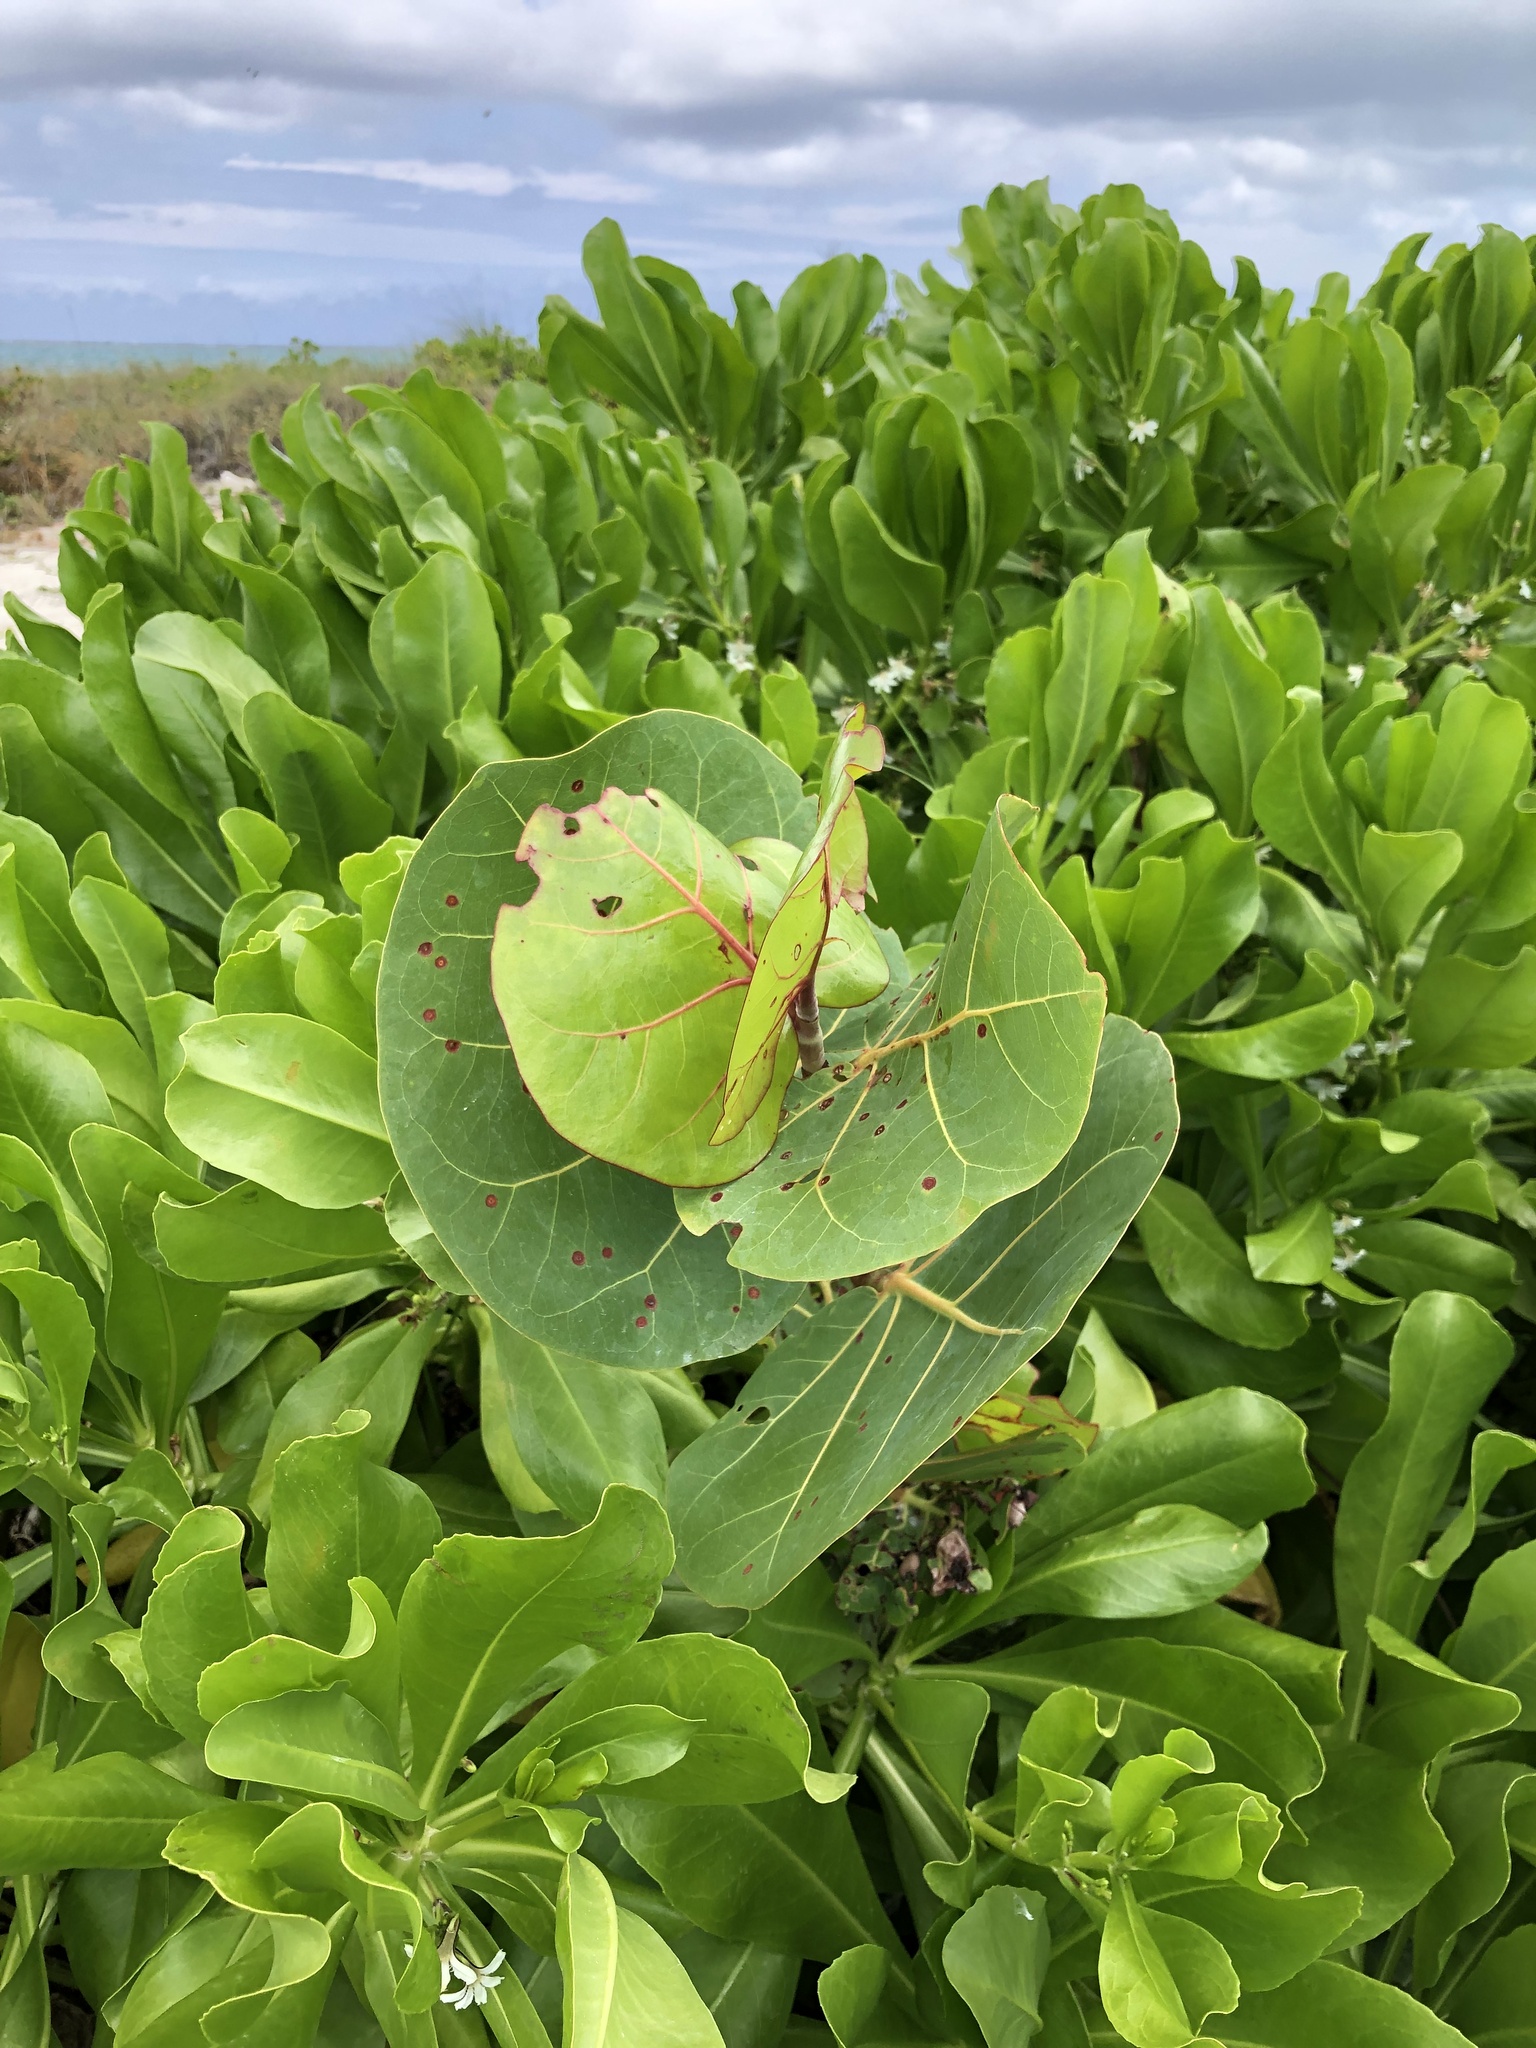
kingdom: Plantae
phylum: Tracheophyta
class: Magnoliopsida
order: Caryophyllales
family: Polygonaceae
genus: Coccoloba
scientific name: Coccoloba uvifera
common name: Seagrape
